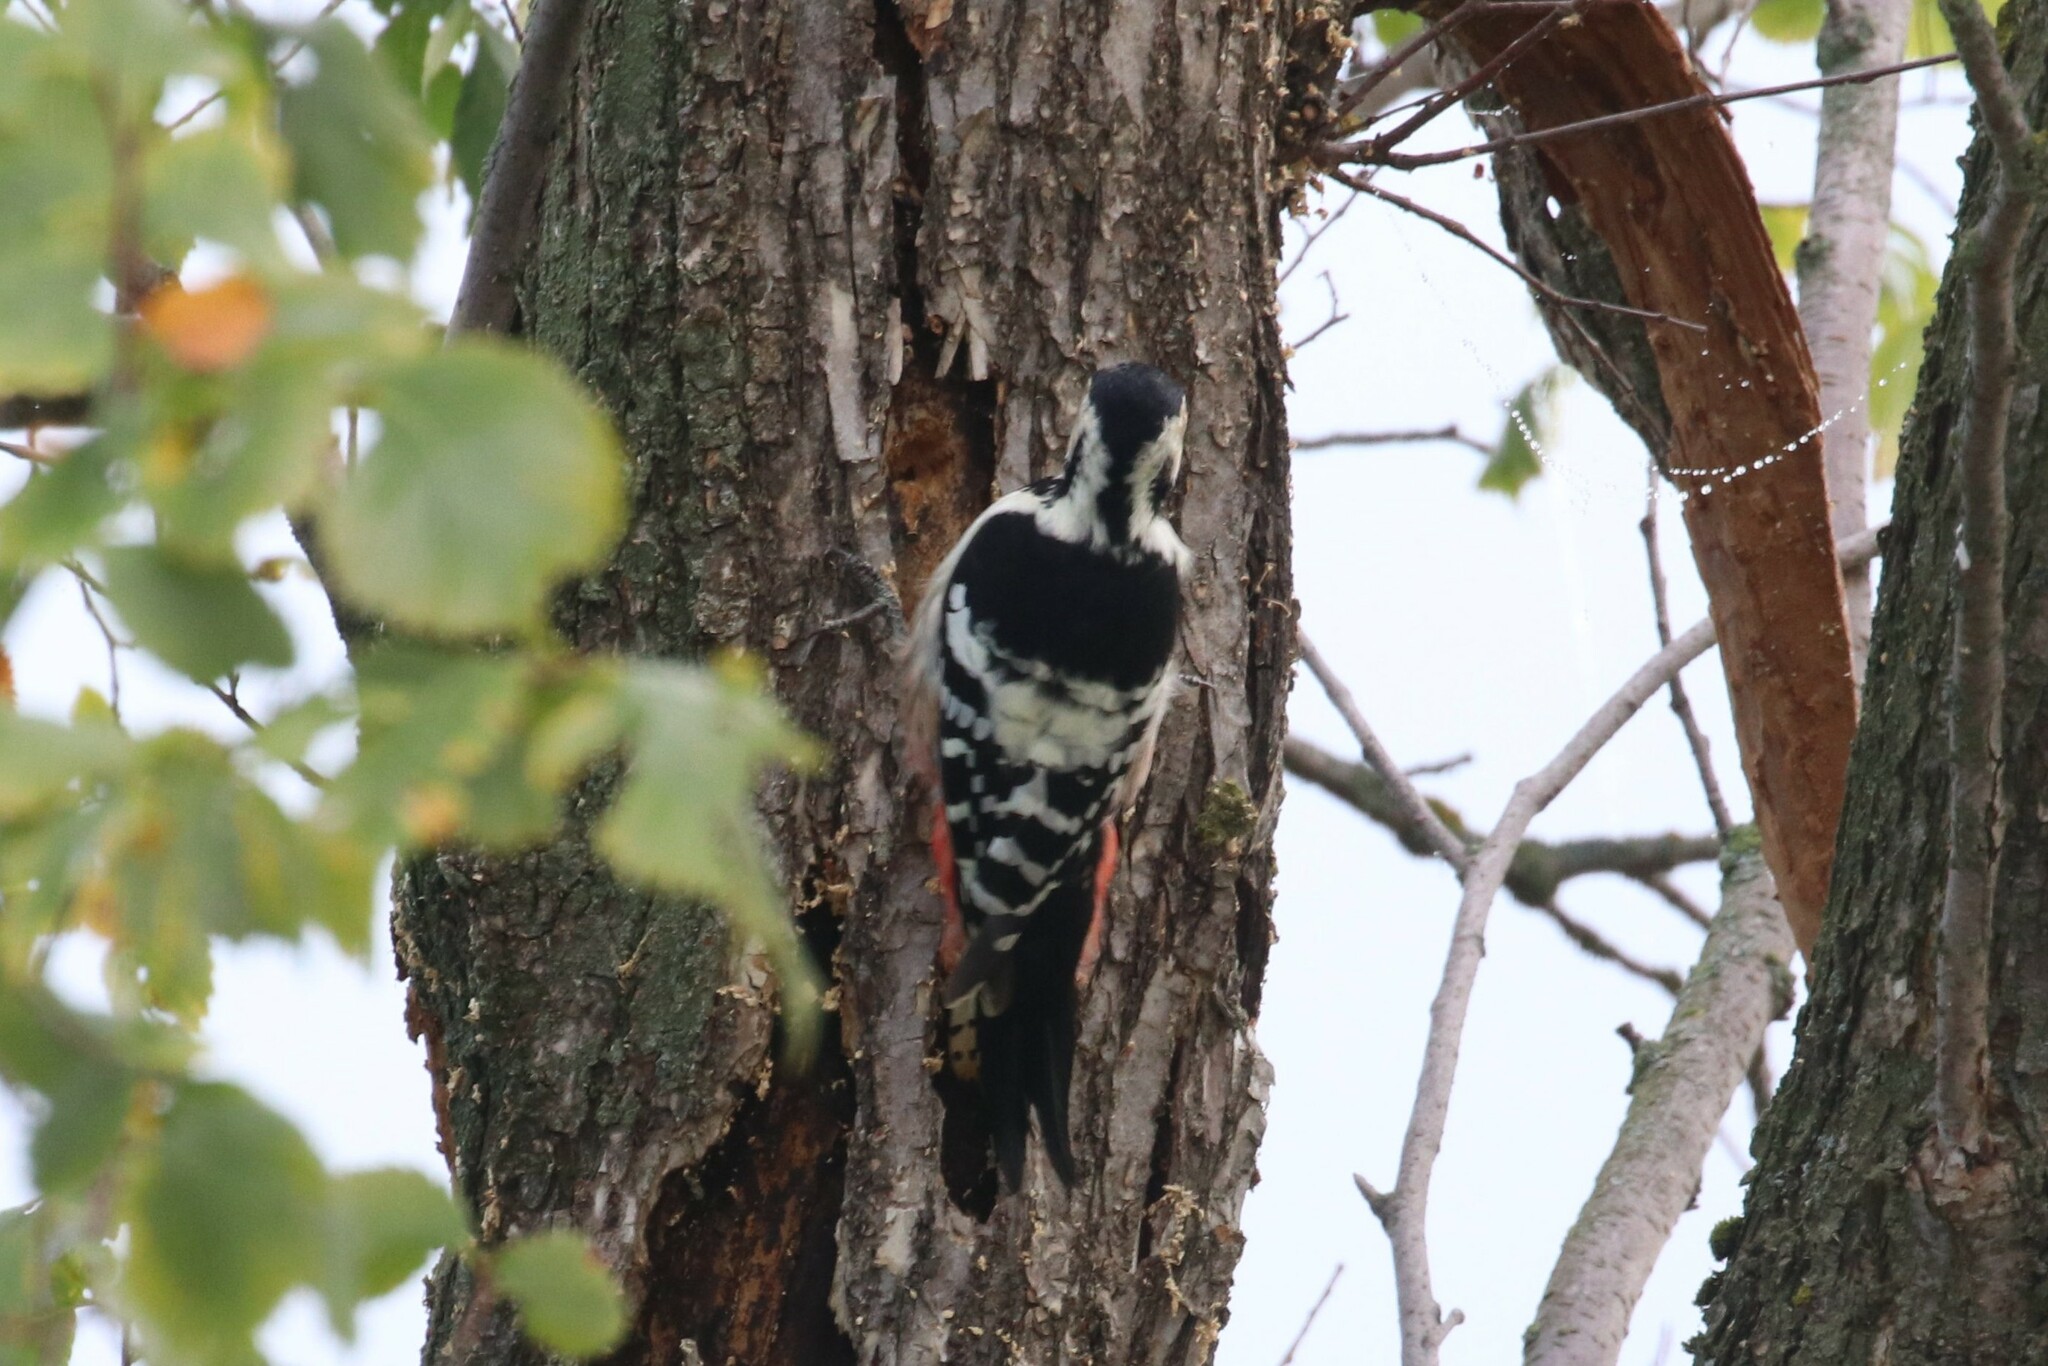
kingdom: Animalia
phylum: Chordata
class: Aves
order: Piciformes
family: Picidae
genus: Dendrocopos
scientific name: Dendrocopos leucotos
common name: White-backed woodpecker
